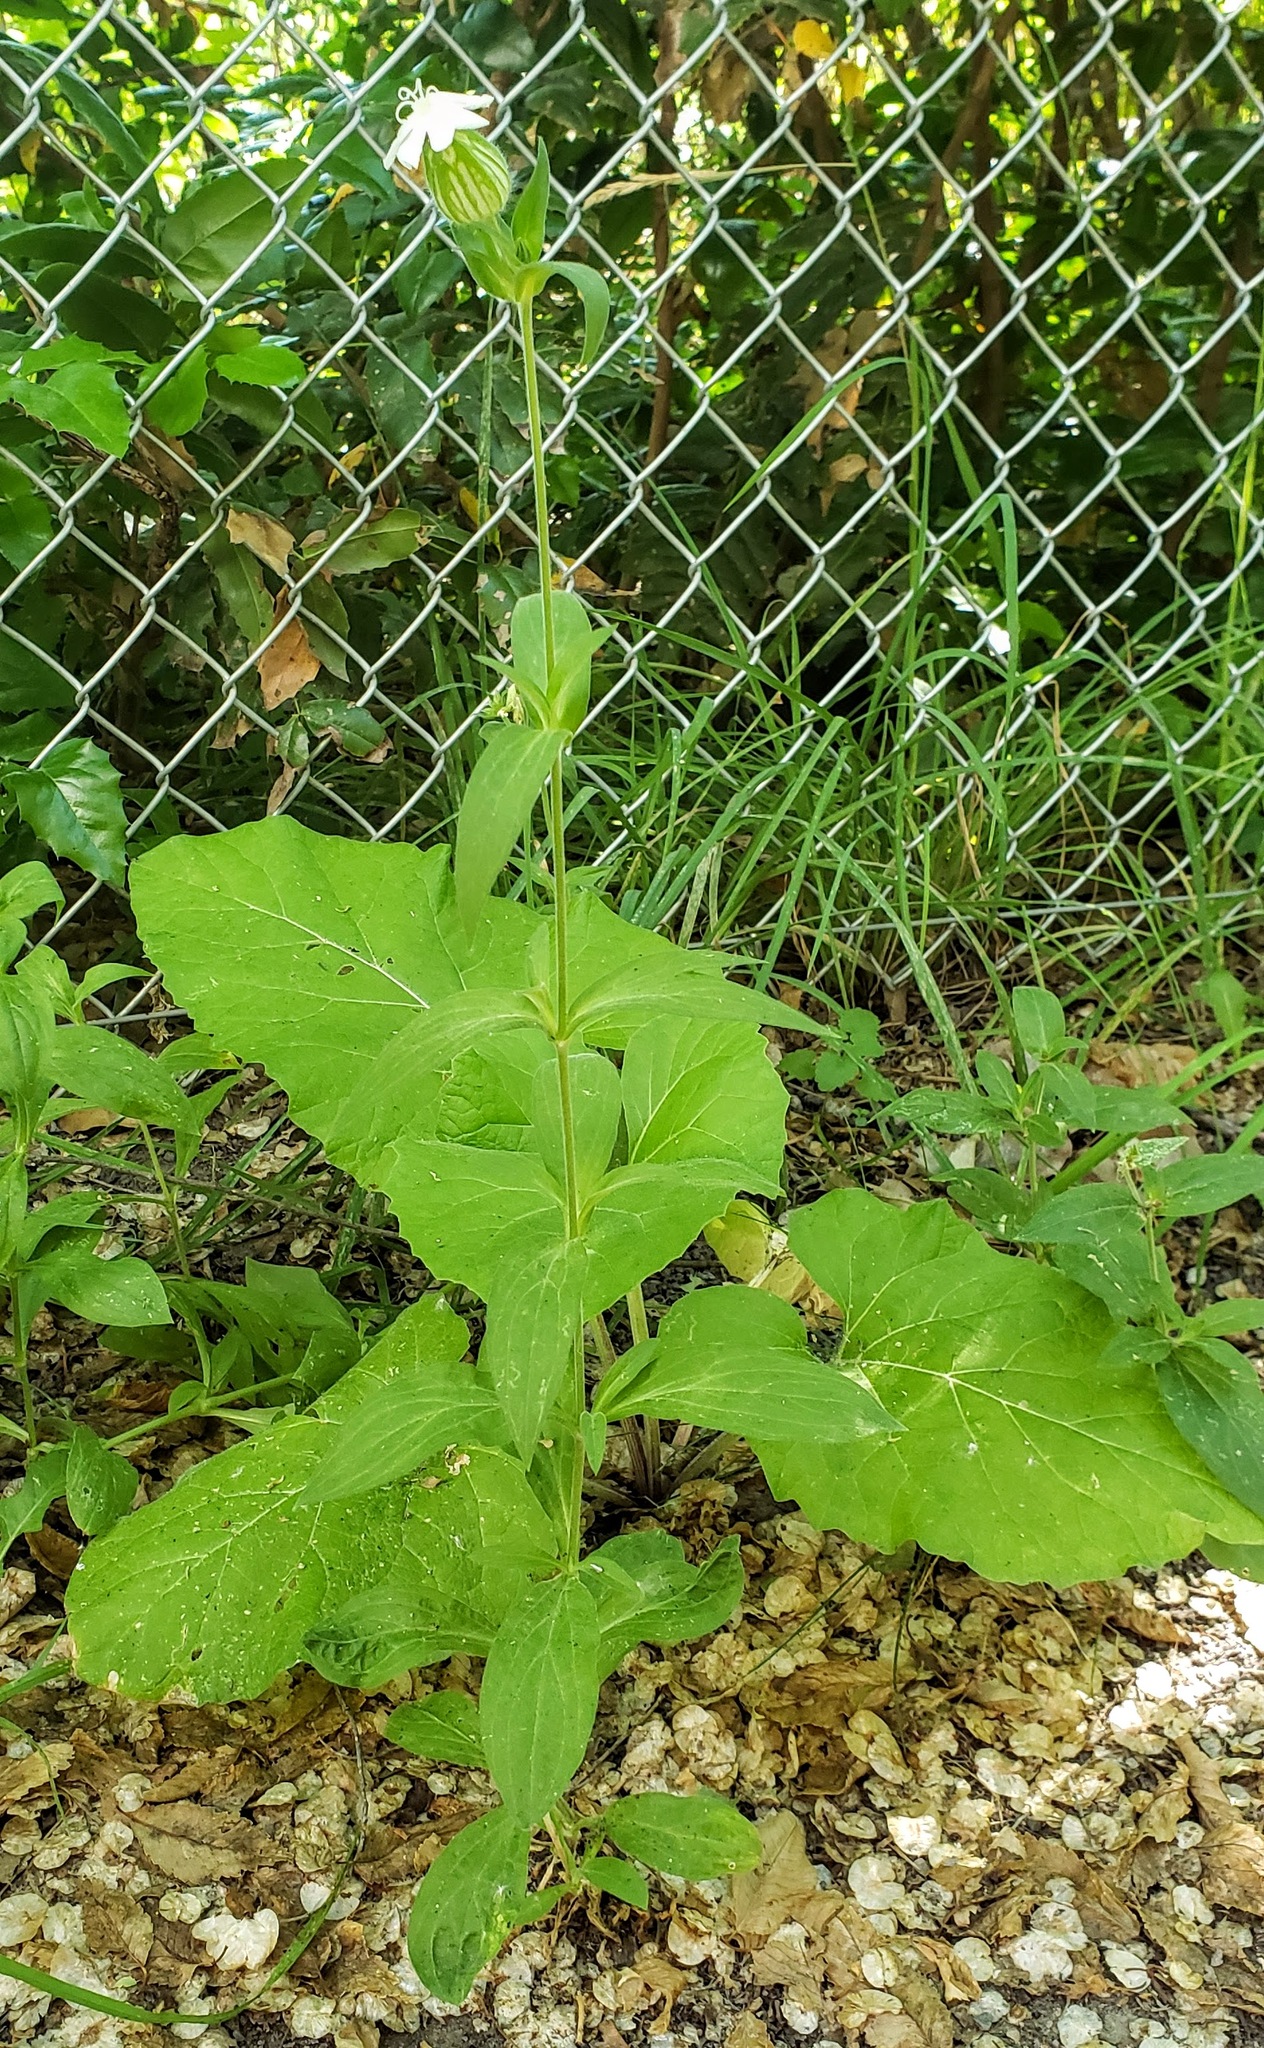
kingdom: Plantae
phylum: Tracheophyta
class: Magnoliopsida
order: Caryophyllales
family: Caryophyllaceae
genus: Silene
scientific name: Silene latifolia
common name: White campion
